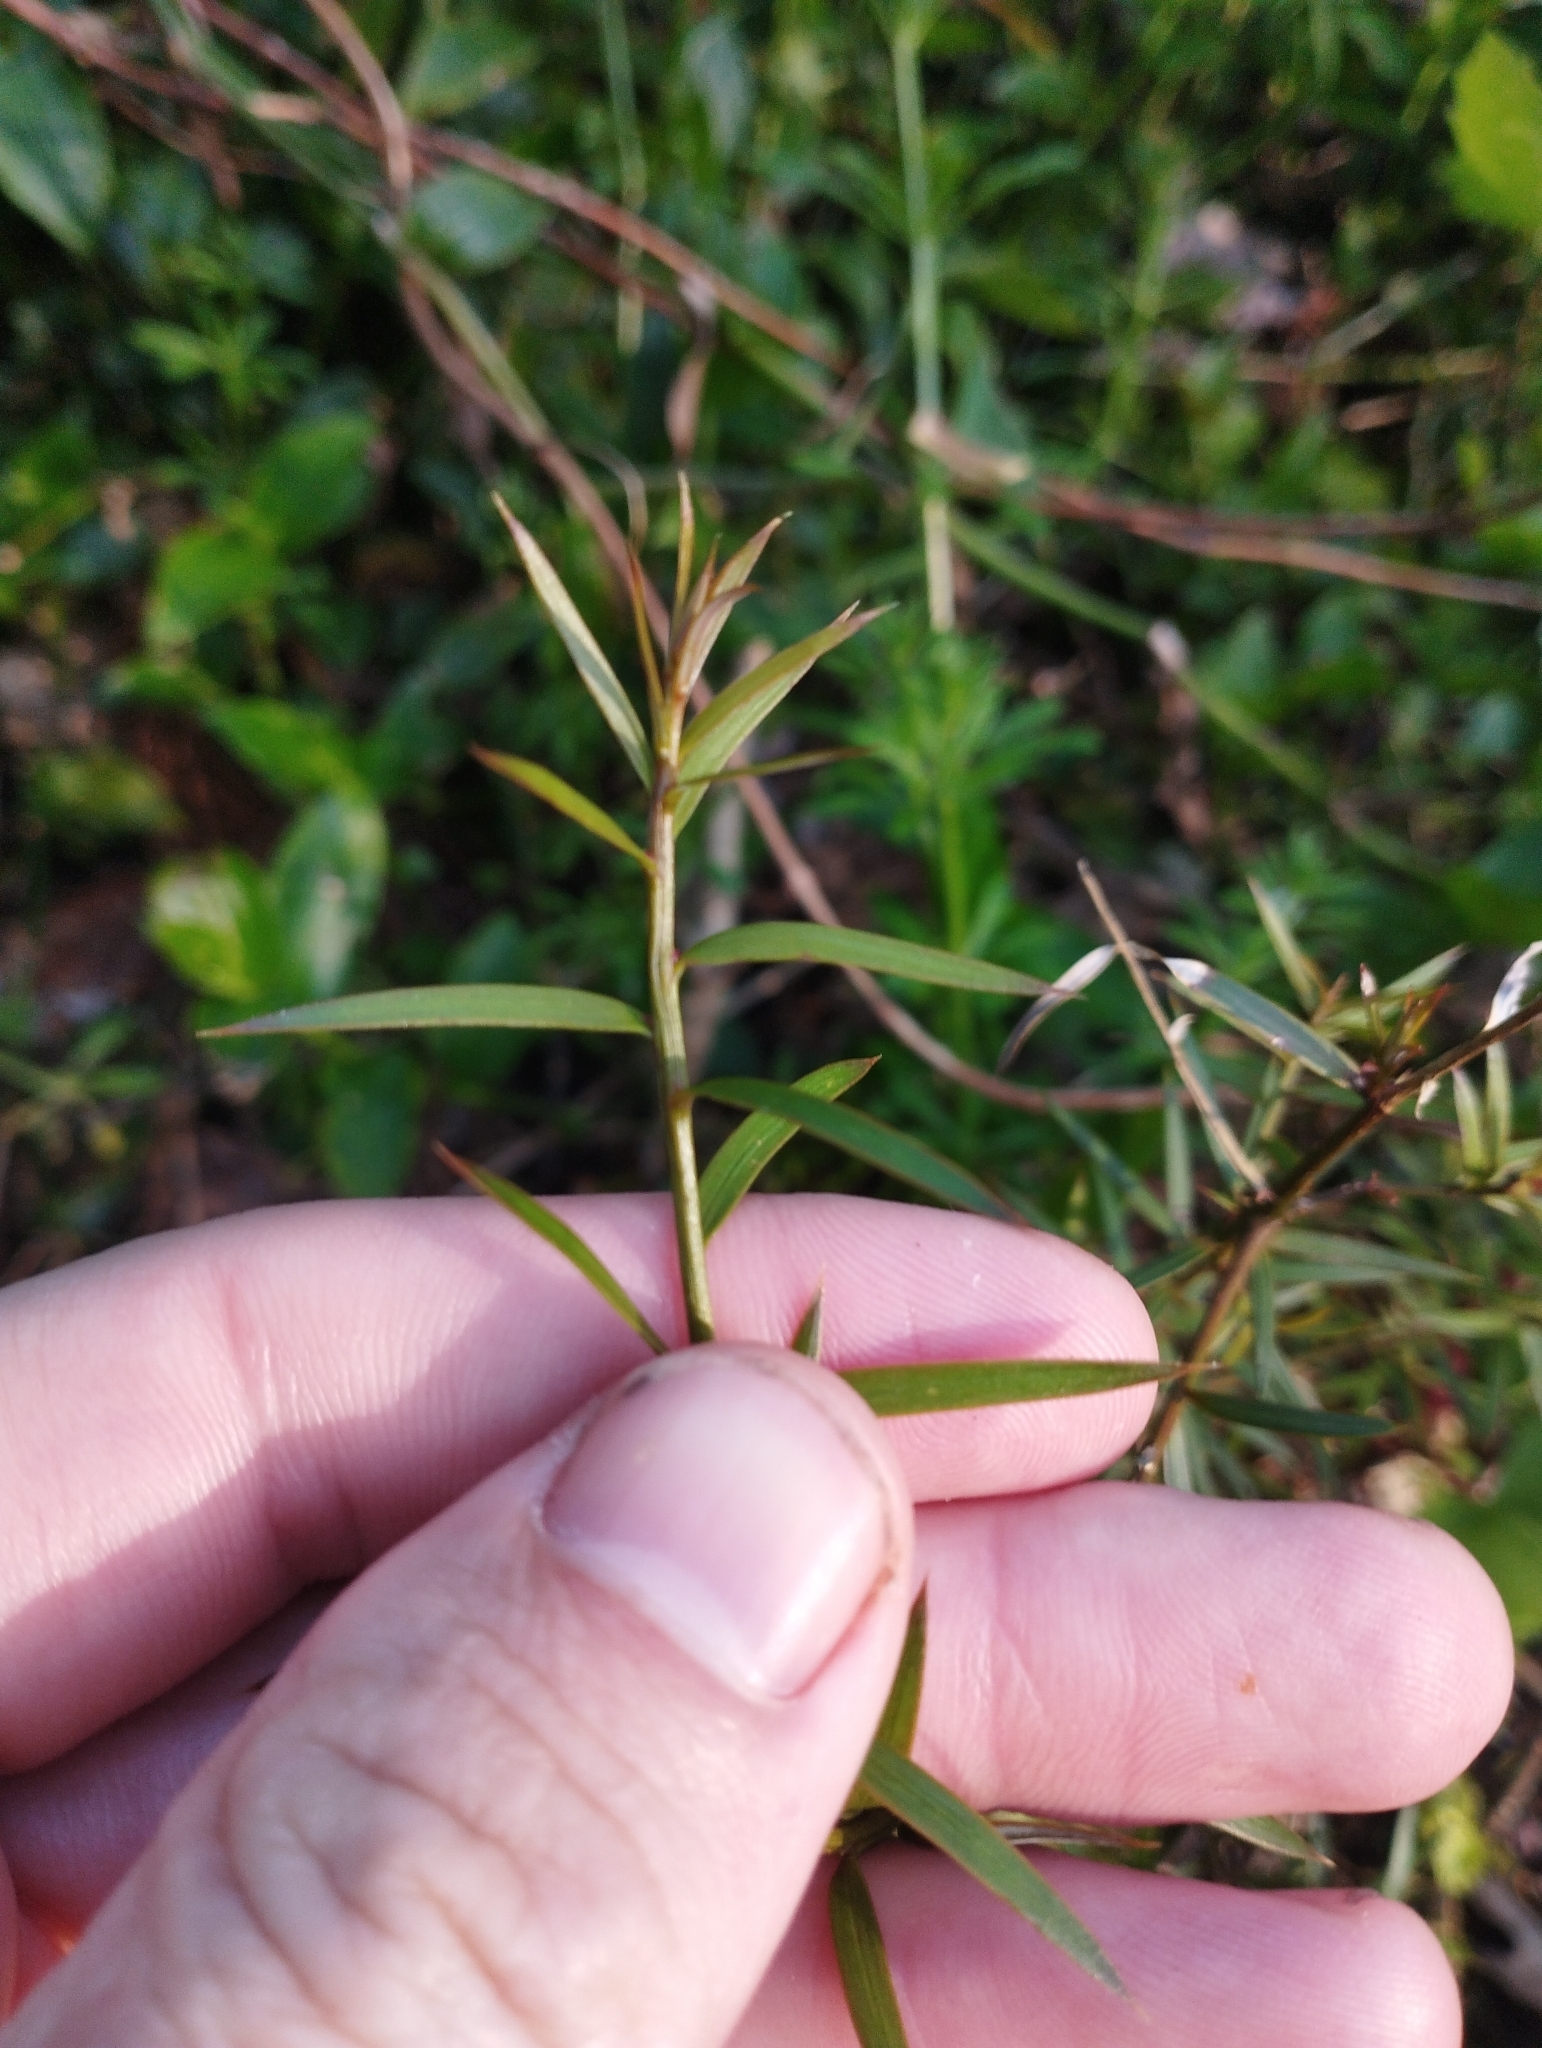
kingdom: Plantae
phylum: Tracheophyta
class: Pinopsida
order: Pinales
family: Podocarpaceae
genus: Podocarpus
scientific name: Podocarpus totara
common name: Totara
